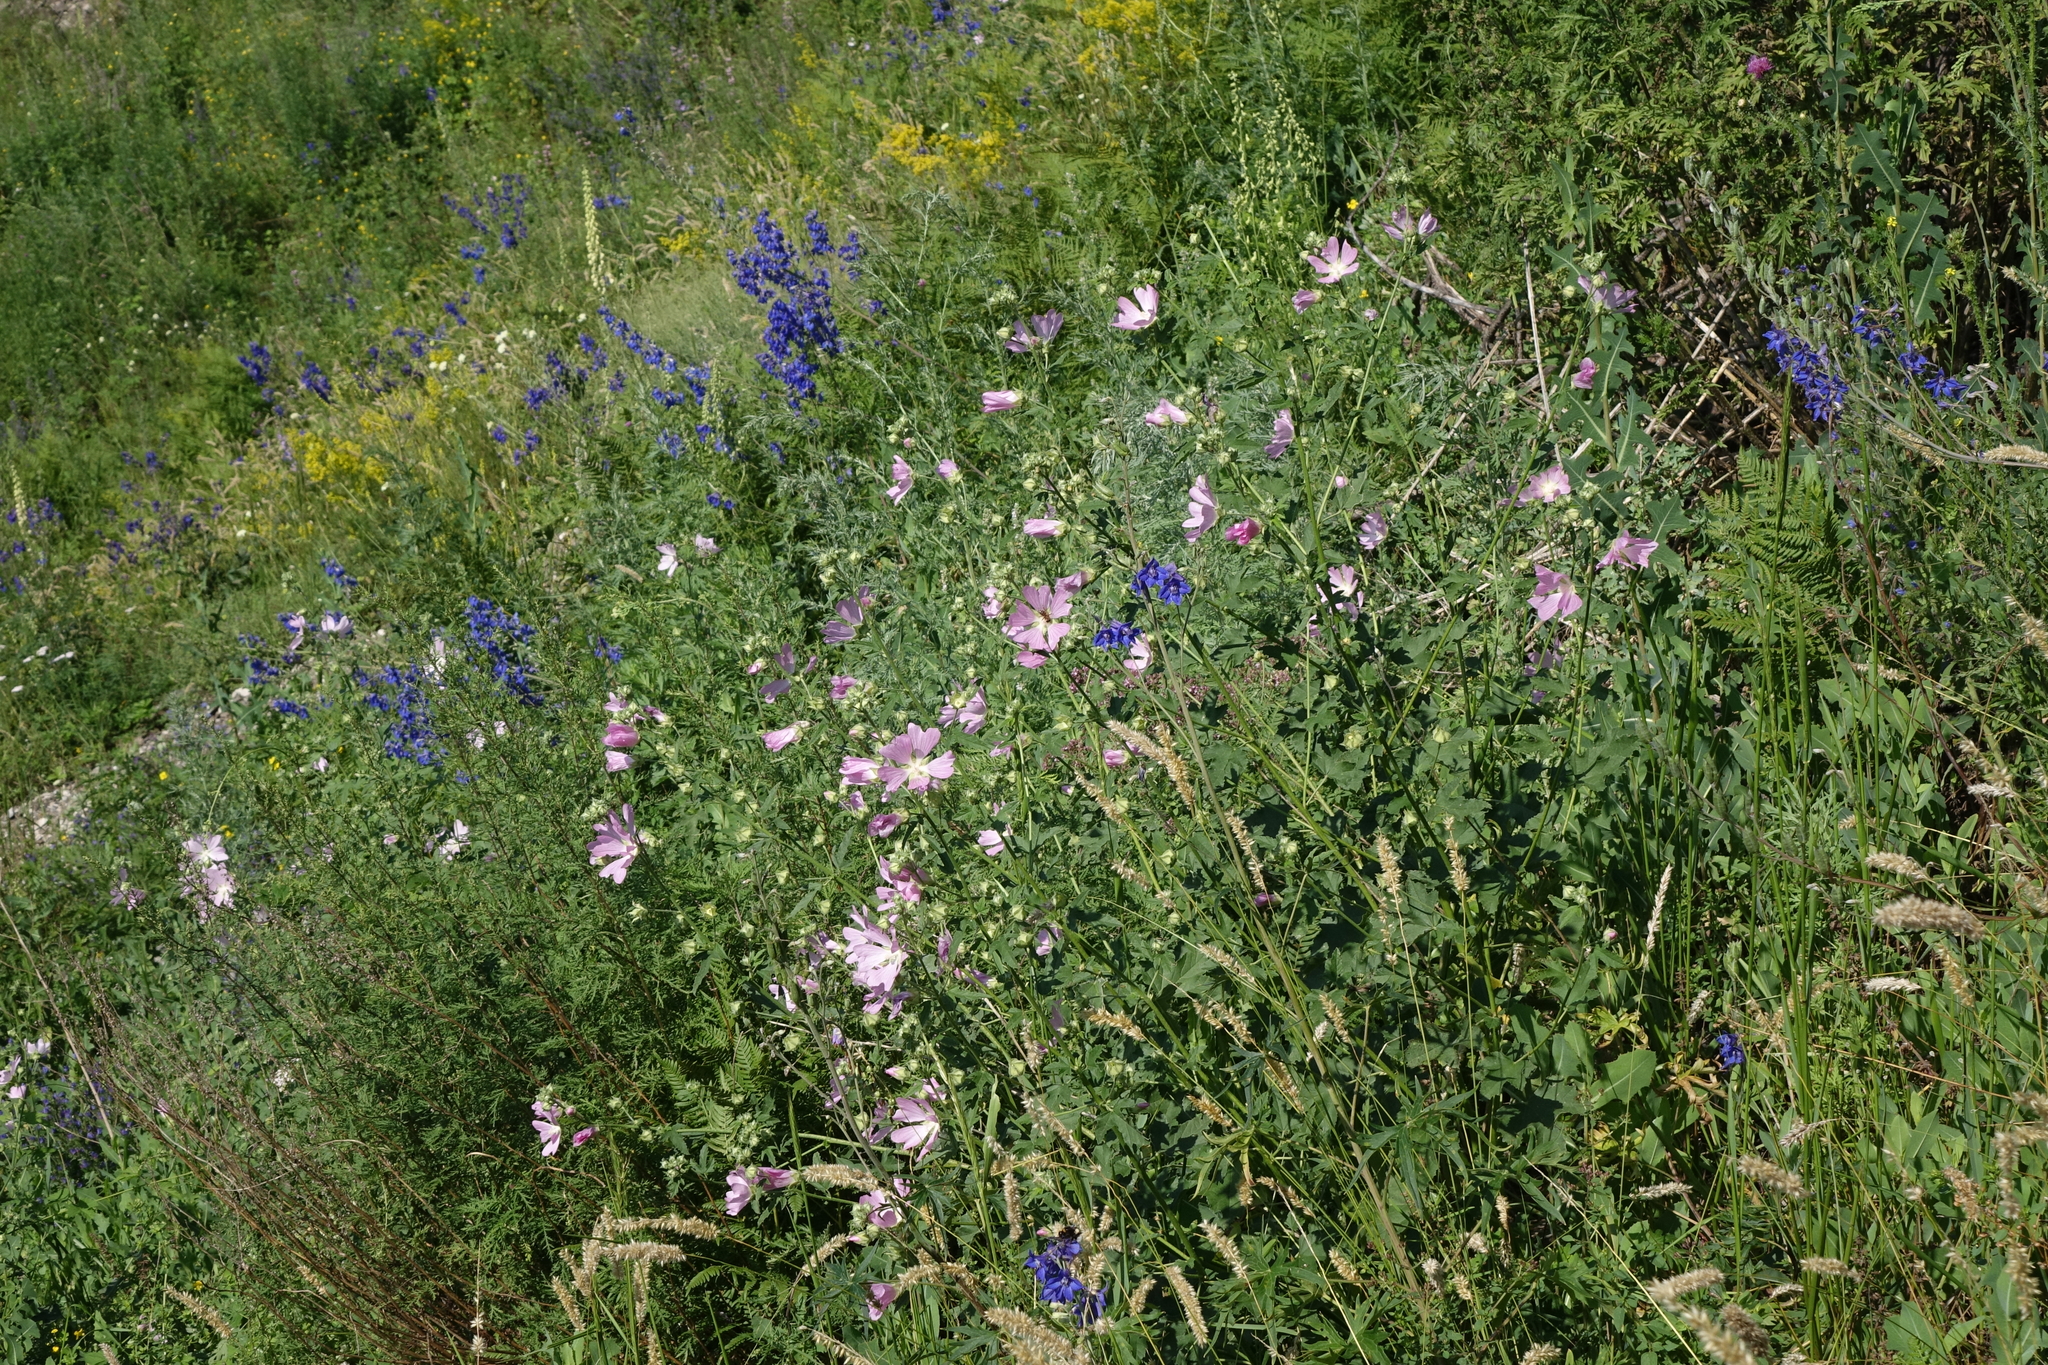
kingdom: Plantae
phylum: Tracheophyta
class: Magnoliopsida
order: Malvales
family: Malvaceae
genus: Malva
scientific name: Malva thuringiaca
